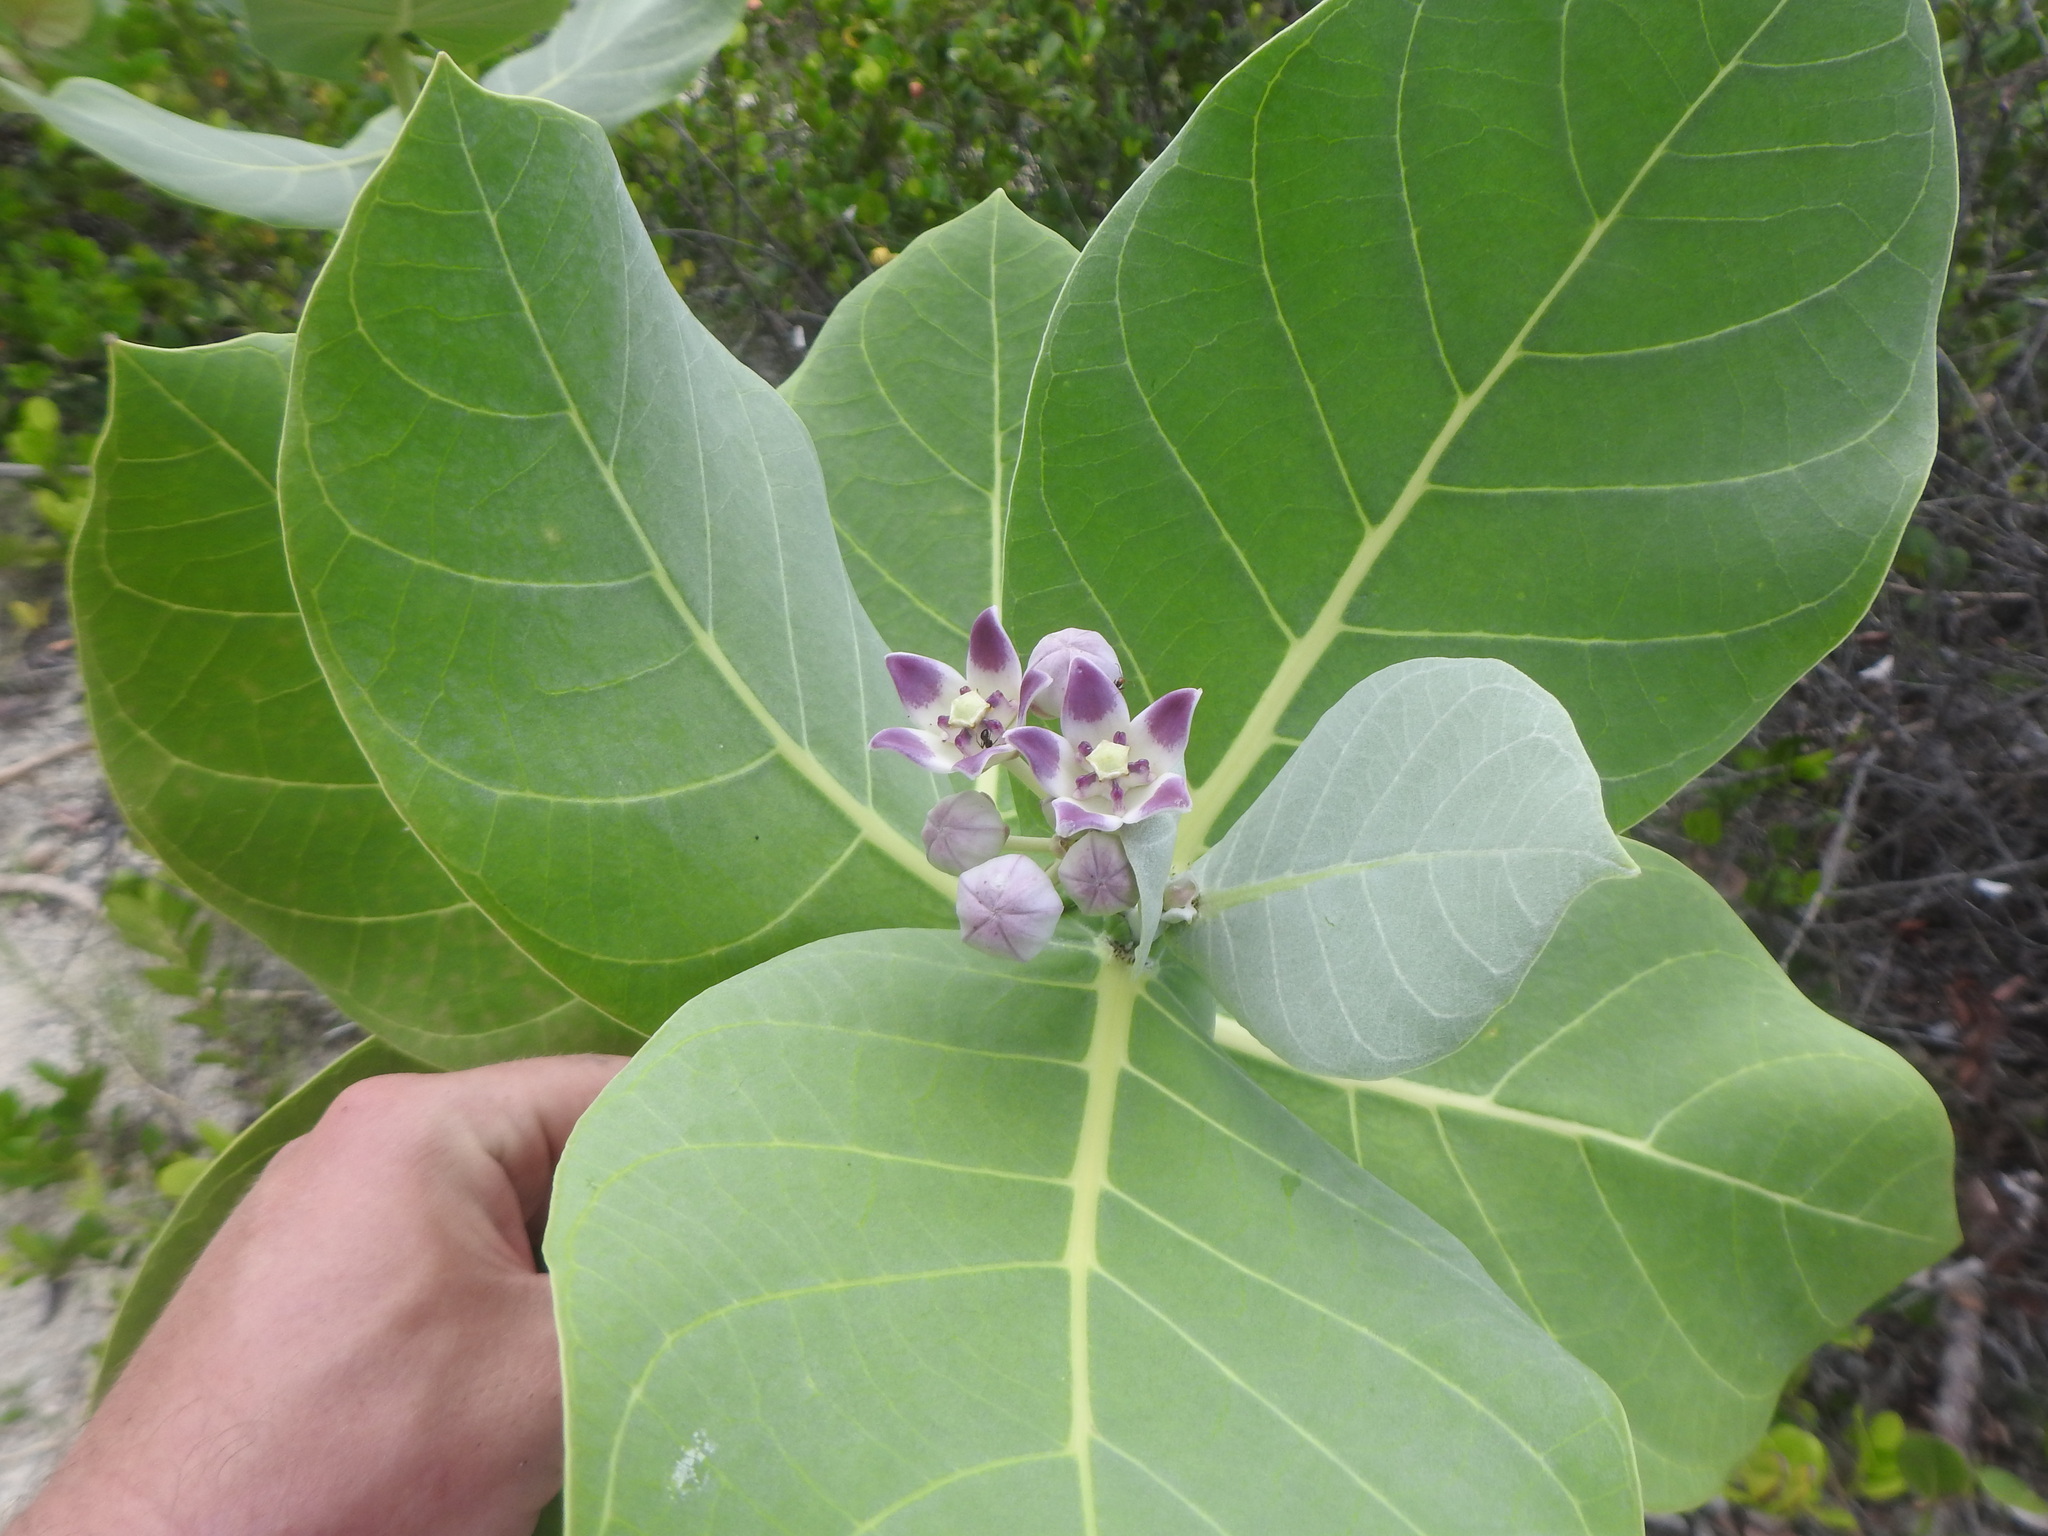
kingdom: Plantae
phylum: Tracheophyta
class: Magnoliopsida
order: Gentianales
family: Apocynaceae
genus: Calotropis
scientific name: Calotropis procera
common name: Roostertree
